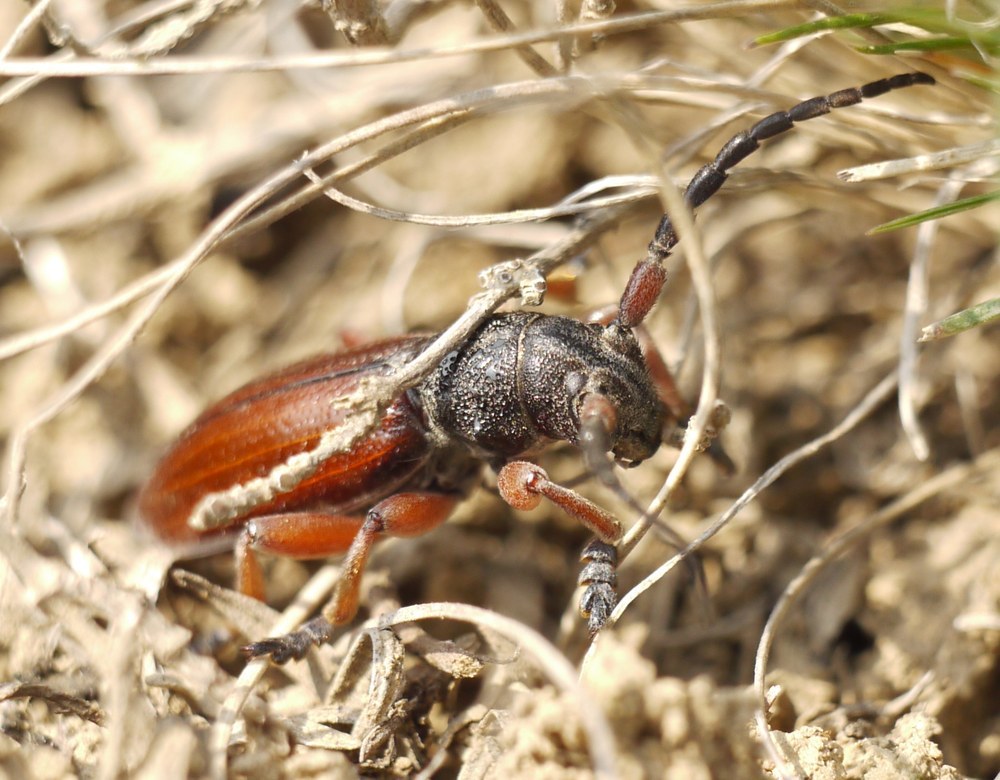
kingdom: Animalia
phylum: Arthropoda
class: Insecta
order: Coleoptera
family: Cerambycidae
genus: Dorcadion
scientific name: Dorcadion fulvum
